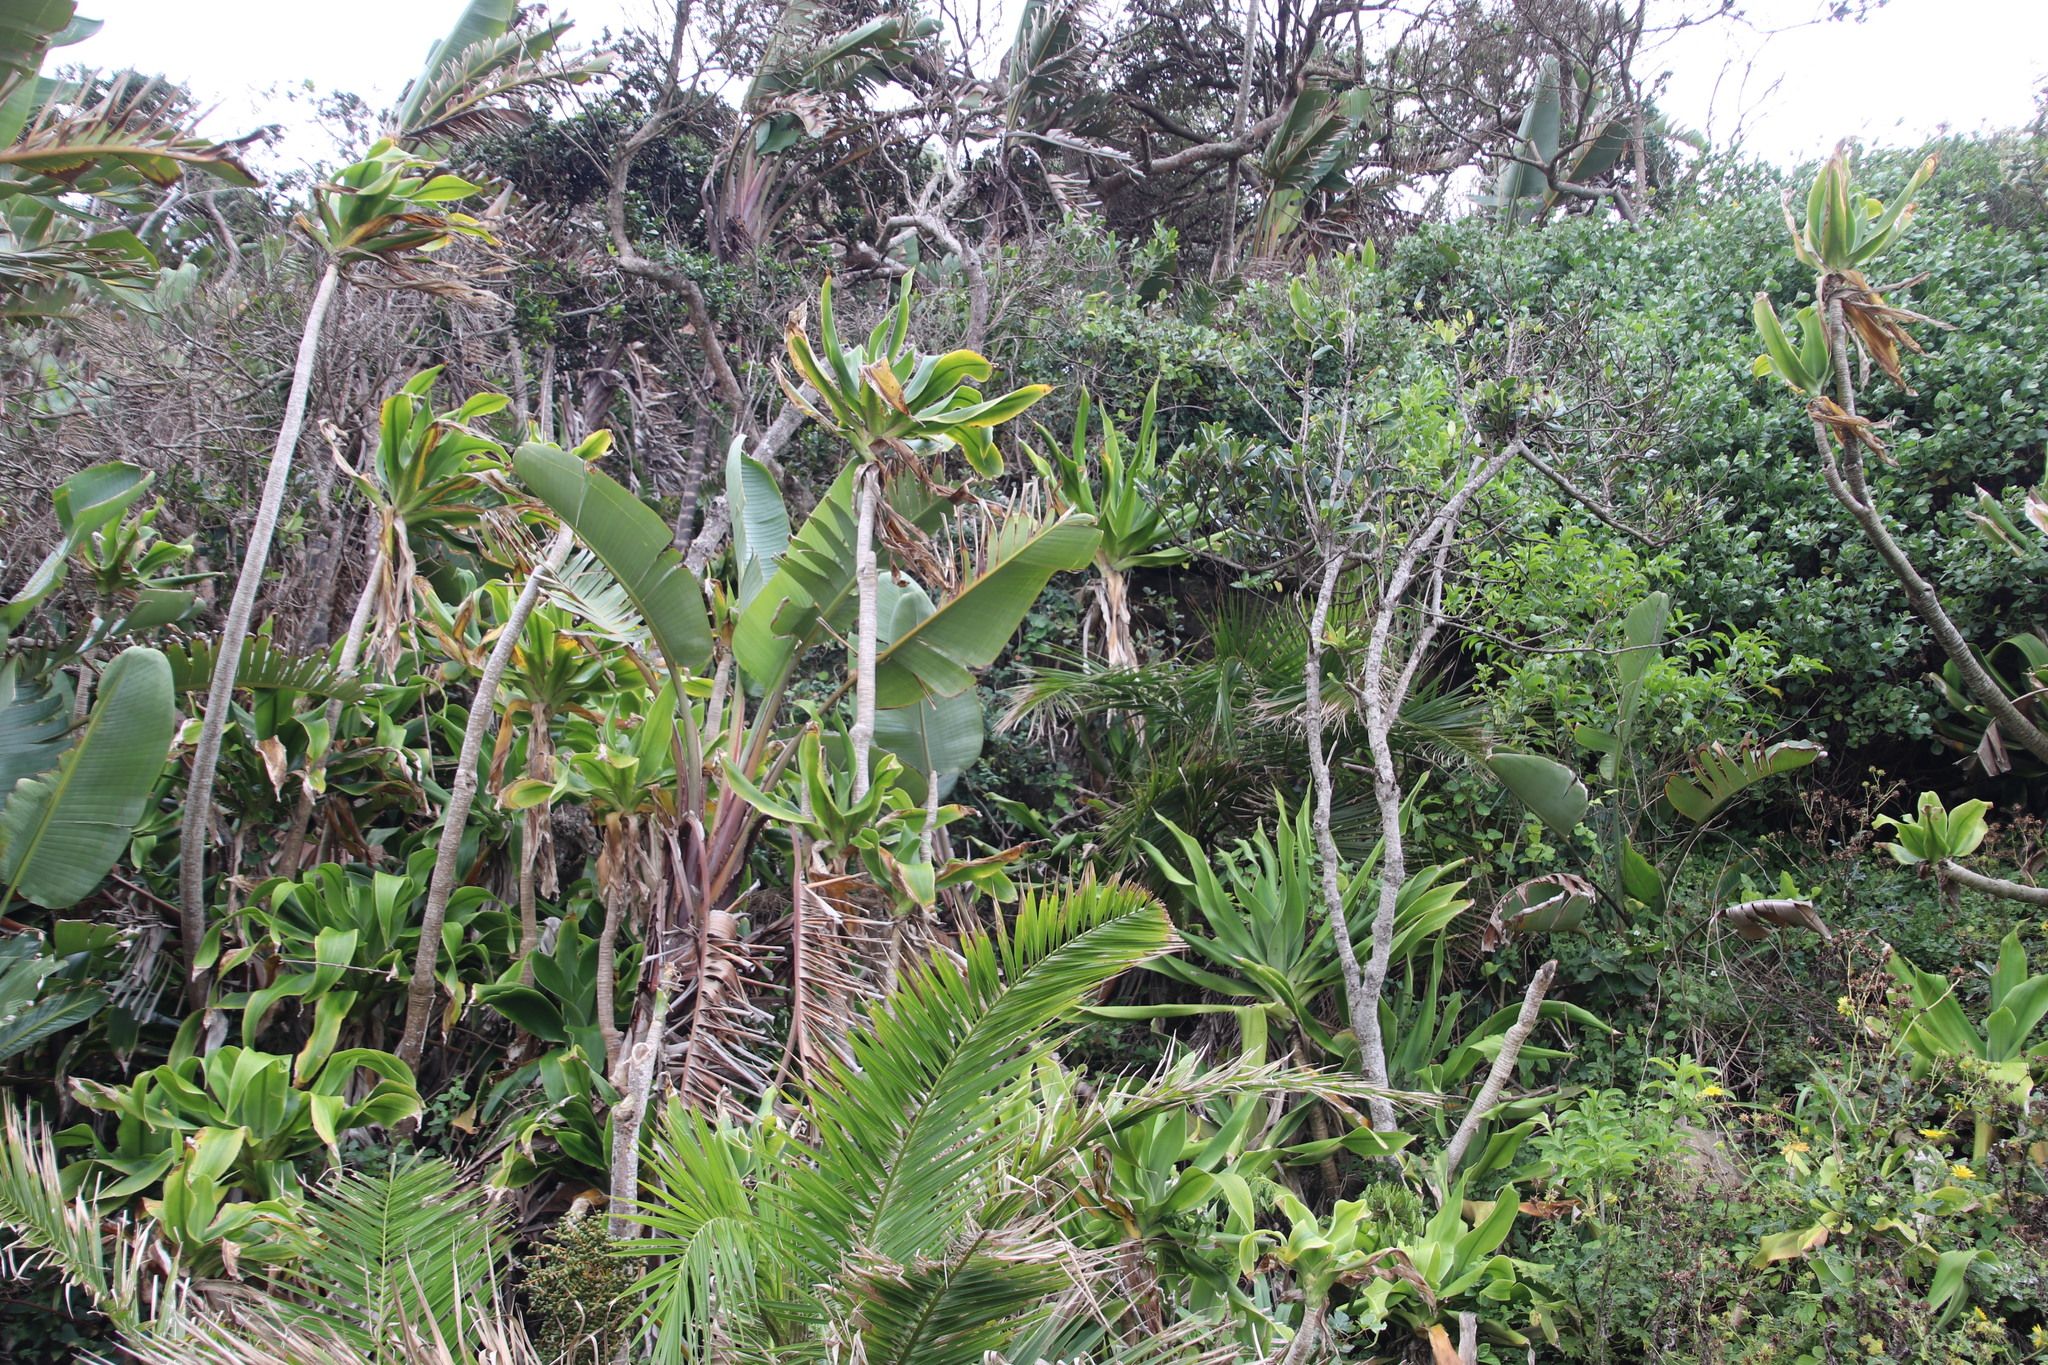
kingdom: Plantae
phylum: Tracheophyta
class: Liliopsida
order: Asparagales
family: Asparagaceae
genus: Dracaena
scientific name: Dracaena aletriformis
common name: Large-leaved dragon tree
